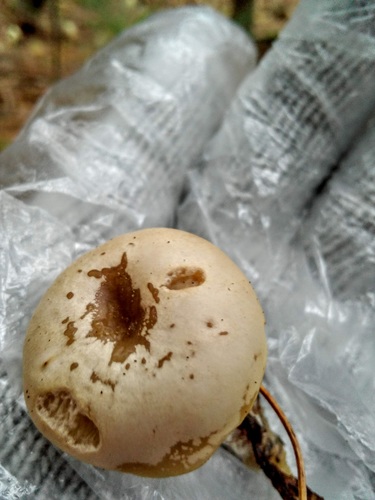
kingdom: Fungi
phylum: Basidiomycota
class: Agaricomycetes
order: Agaricales
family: Tricholomataceae
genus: Clitocybe
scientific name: Clitocybe
